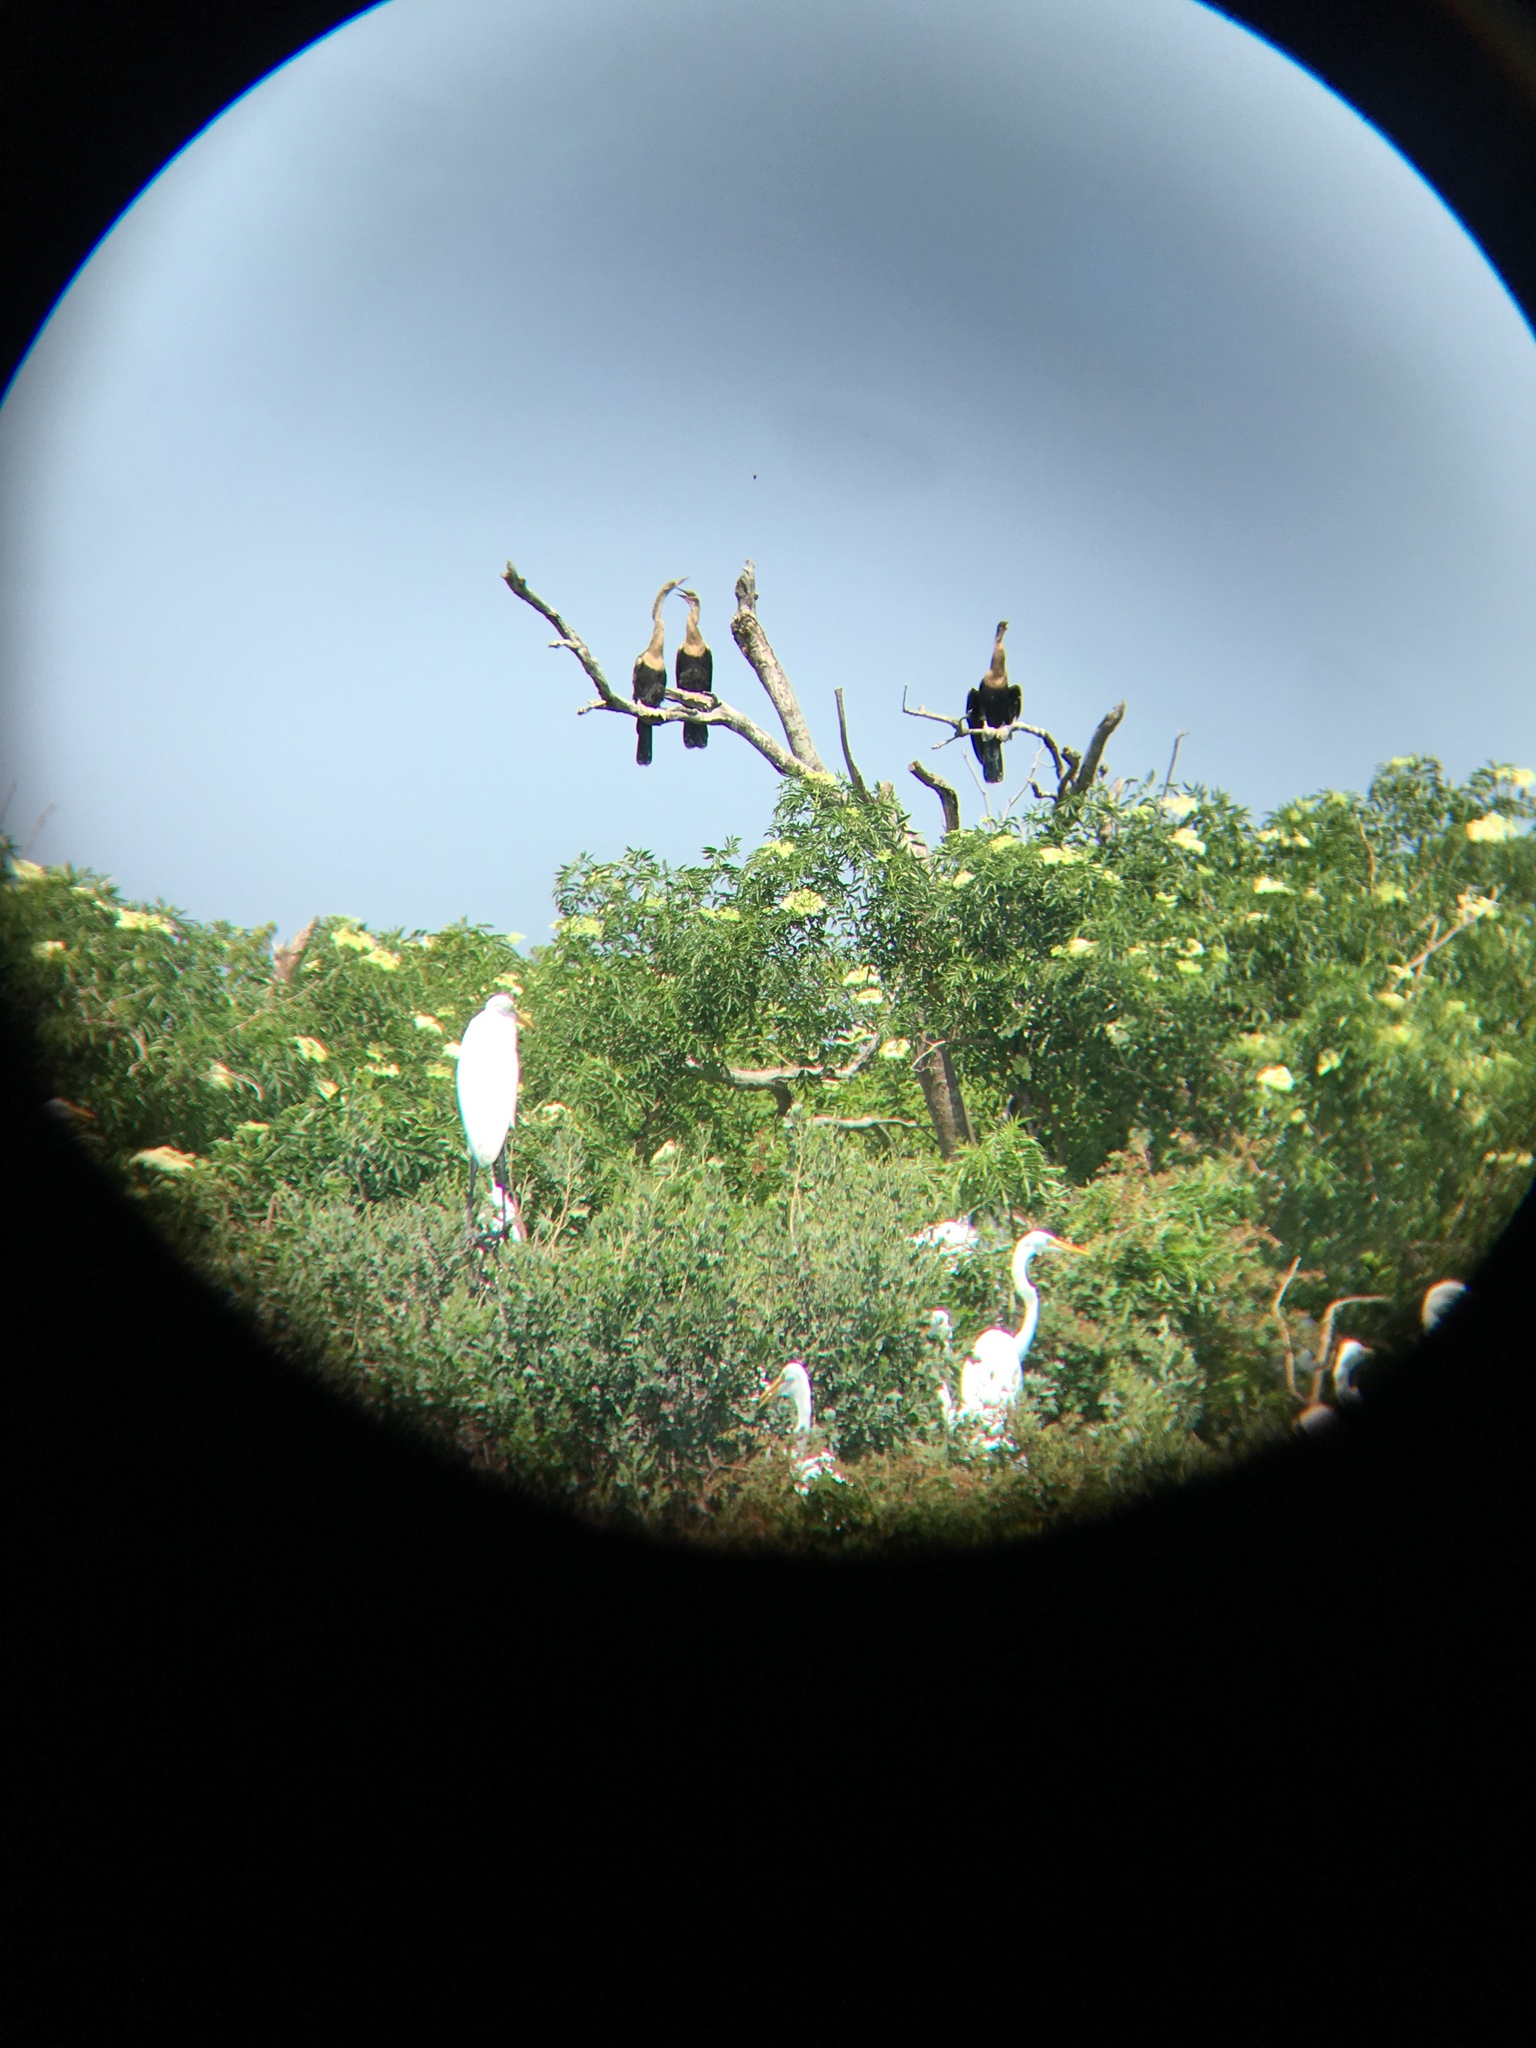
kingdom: Animalia
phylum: Chordata
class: Aves
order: Suliformes
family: Anhingidae
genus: Anhinga
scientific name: Anhinga anhinga
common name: Anhinga
